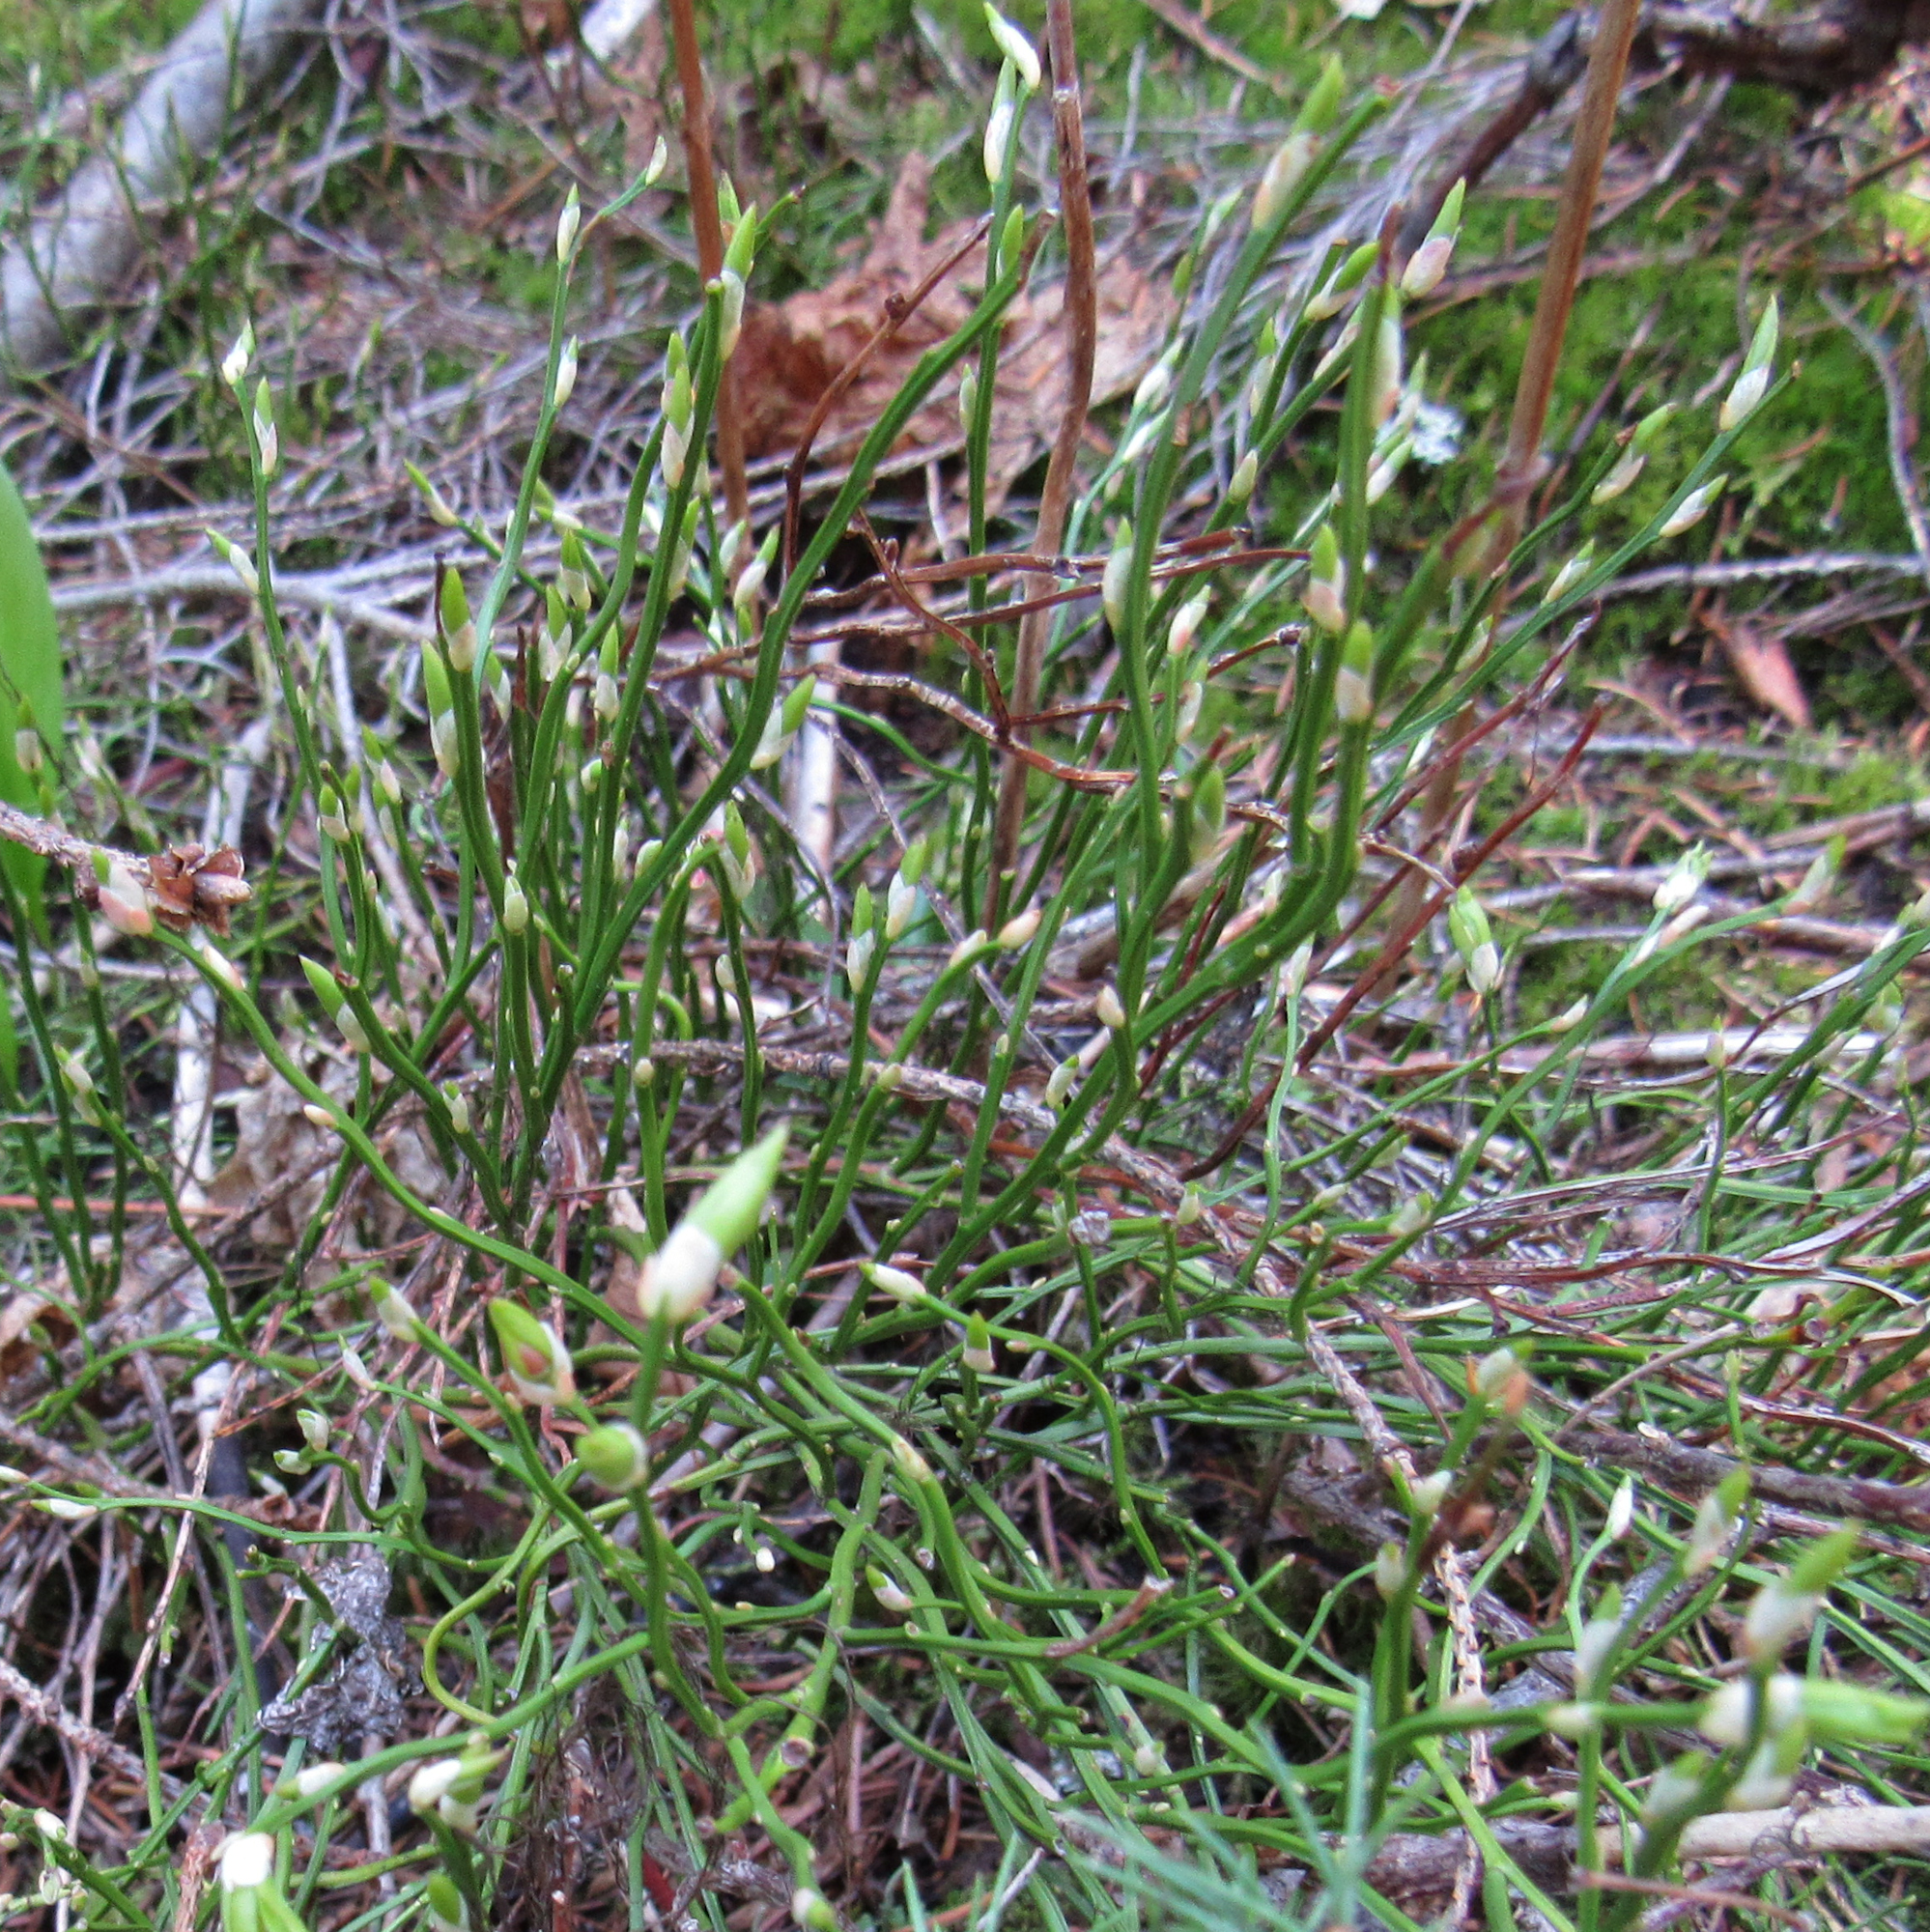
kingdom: Plantae
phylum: Tracheophyta
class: Magnoliopsida
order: Ericales
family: Ericaceae
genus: Vaccinium
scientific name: Vaccinium scoparium
